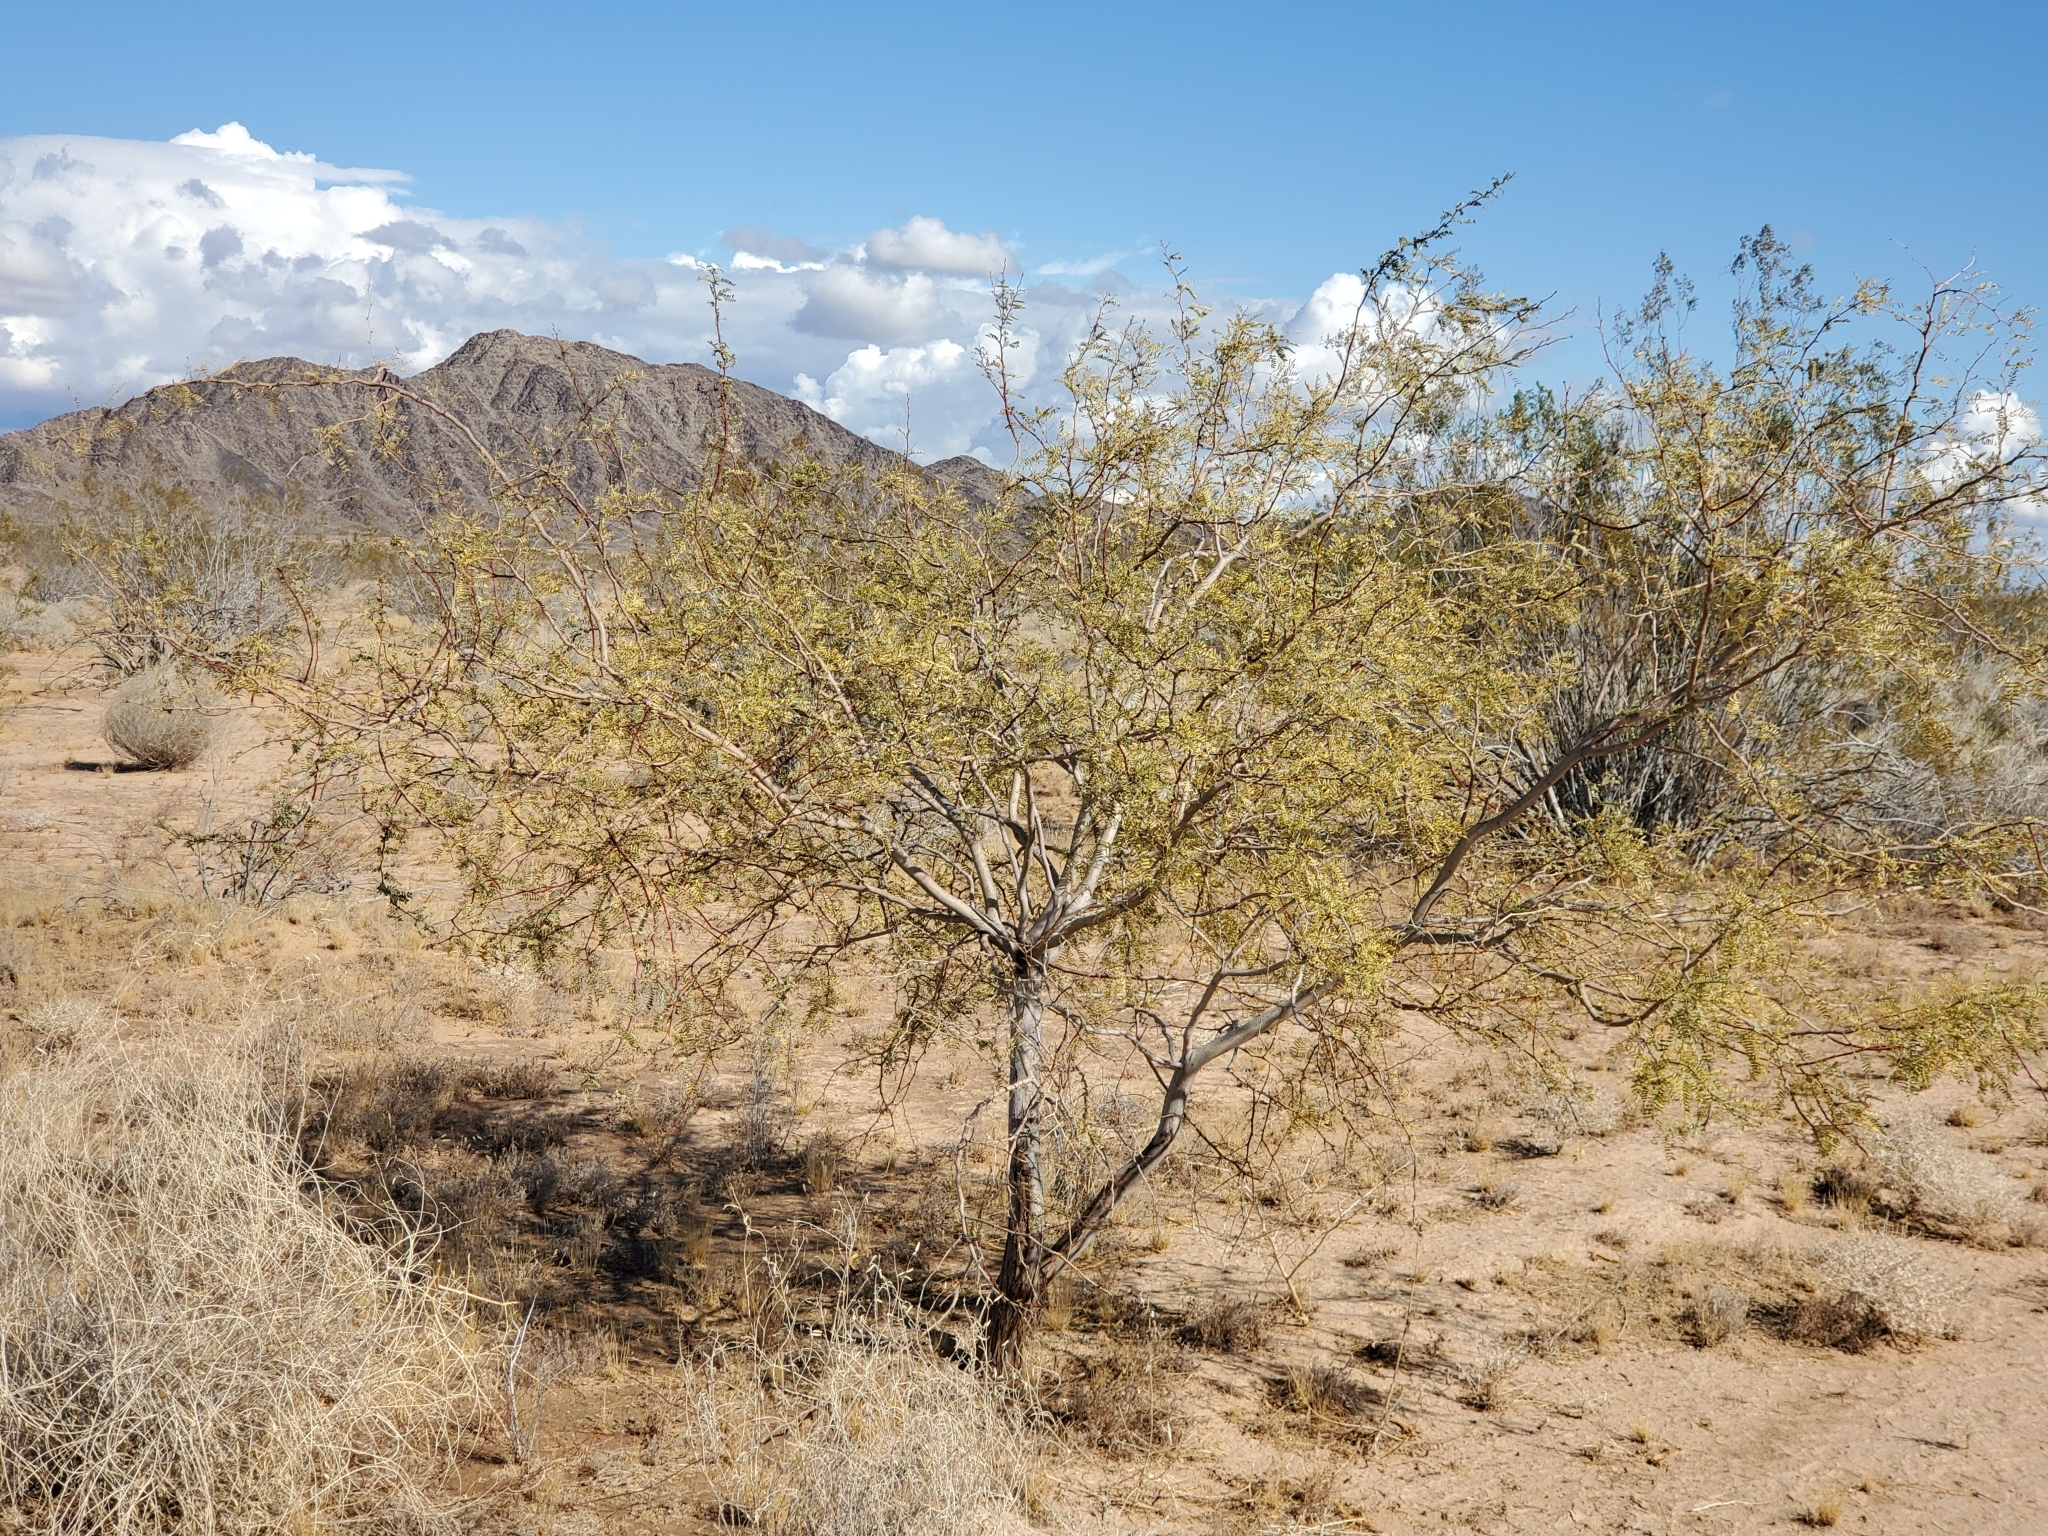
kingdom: Plantae
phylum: Tracheophyta
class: Magnoliopsida
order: Fabales
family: Fabaceae
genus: Prosopis
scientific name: Prosopis pubescens
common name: Screw-bean
